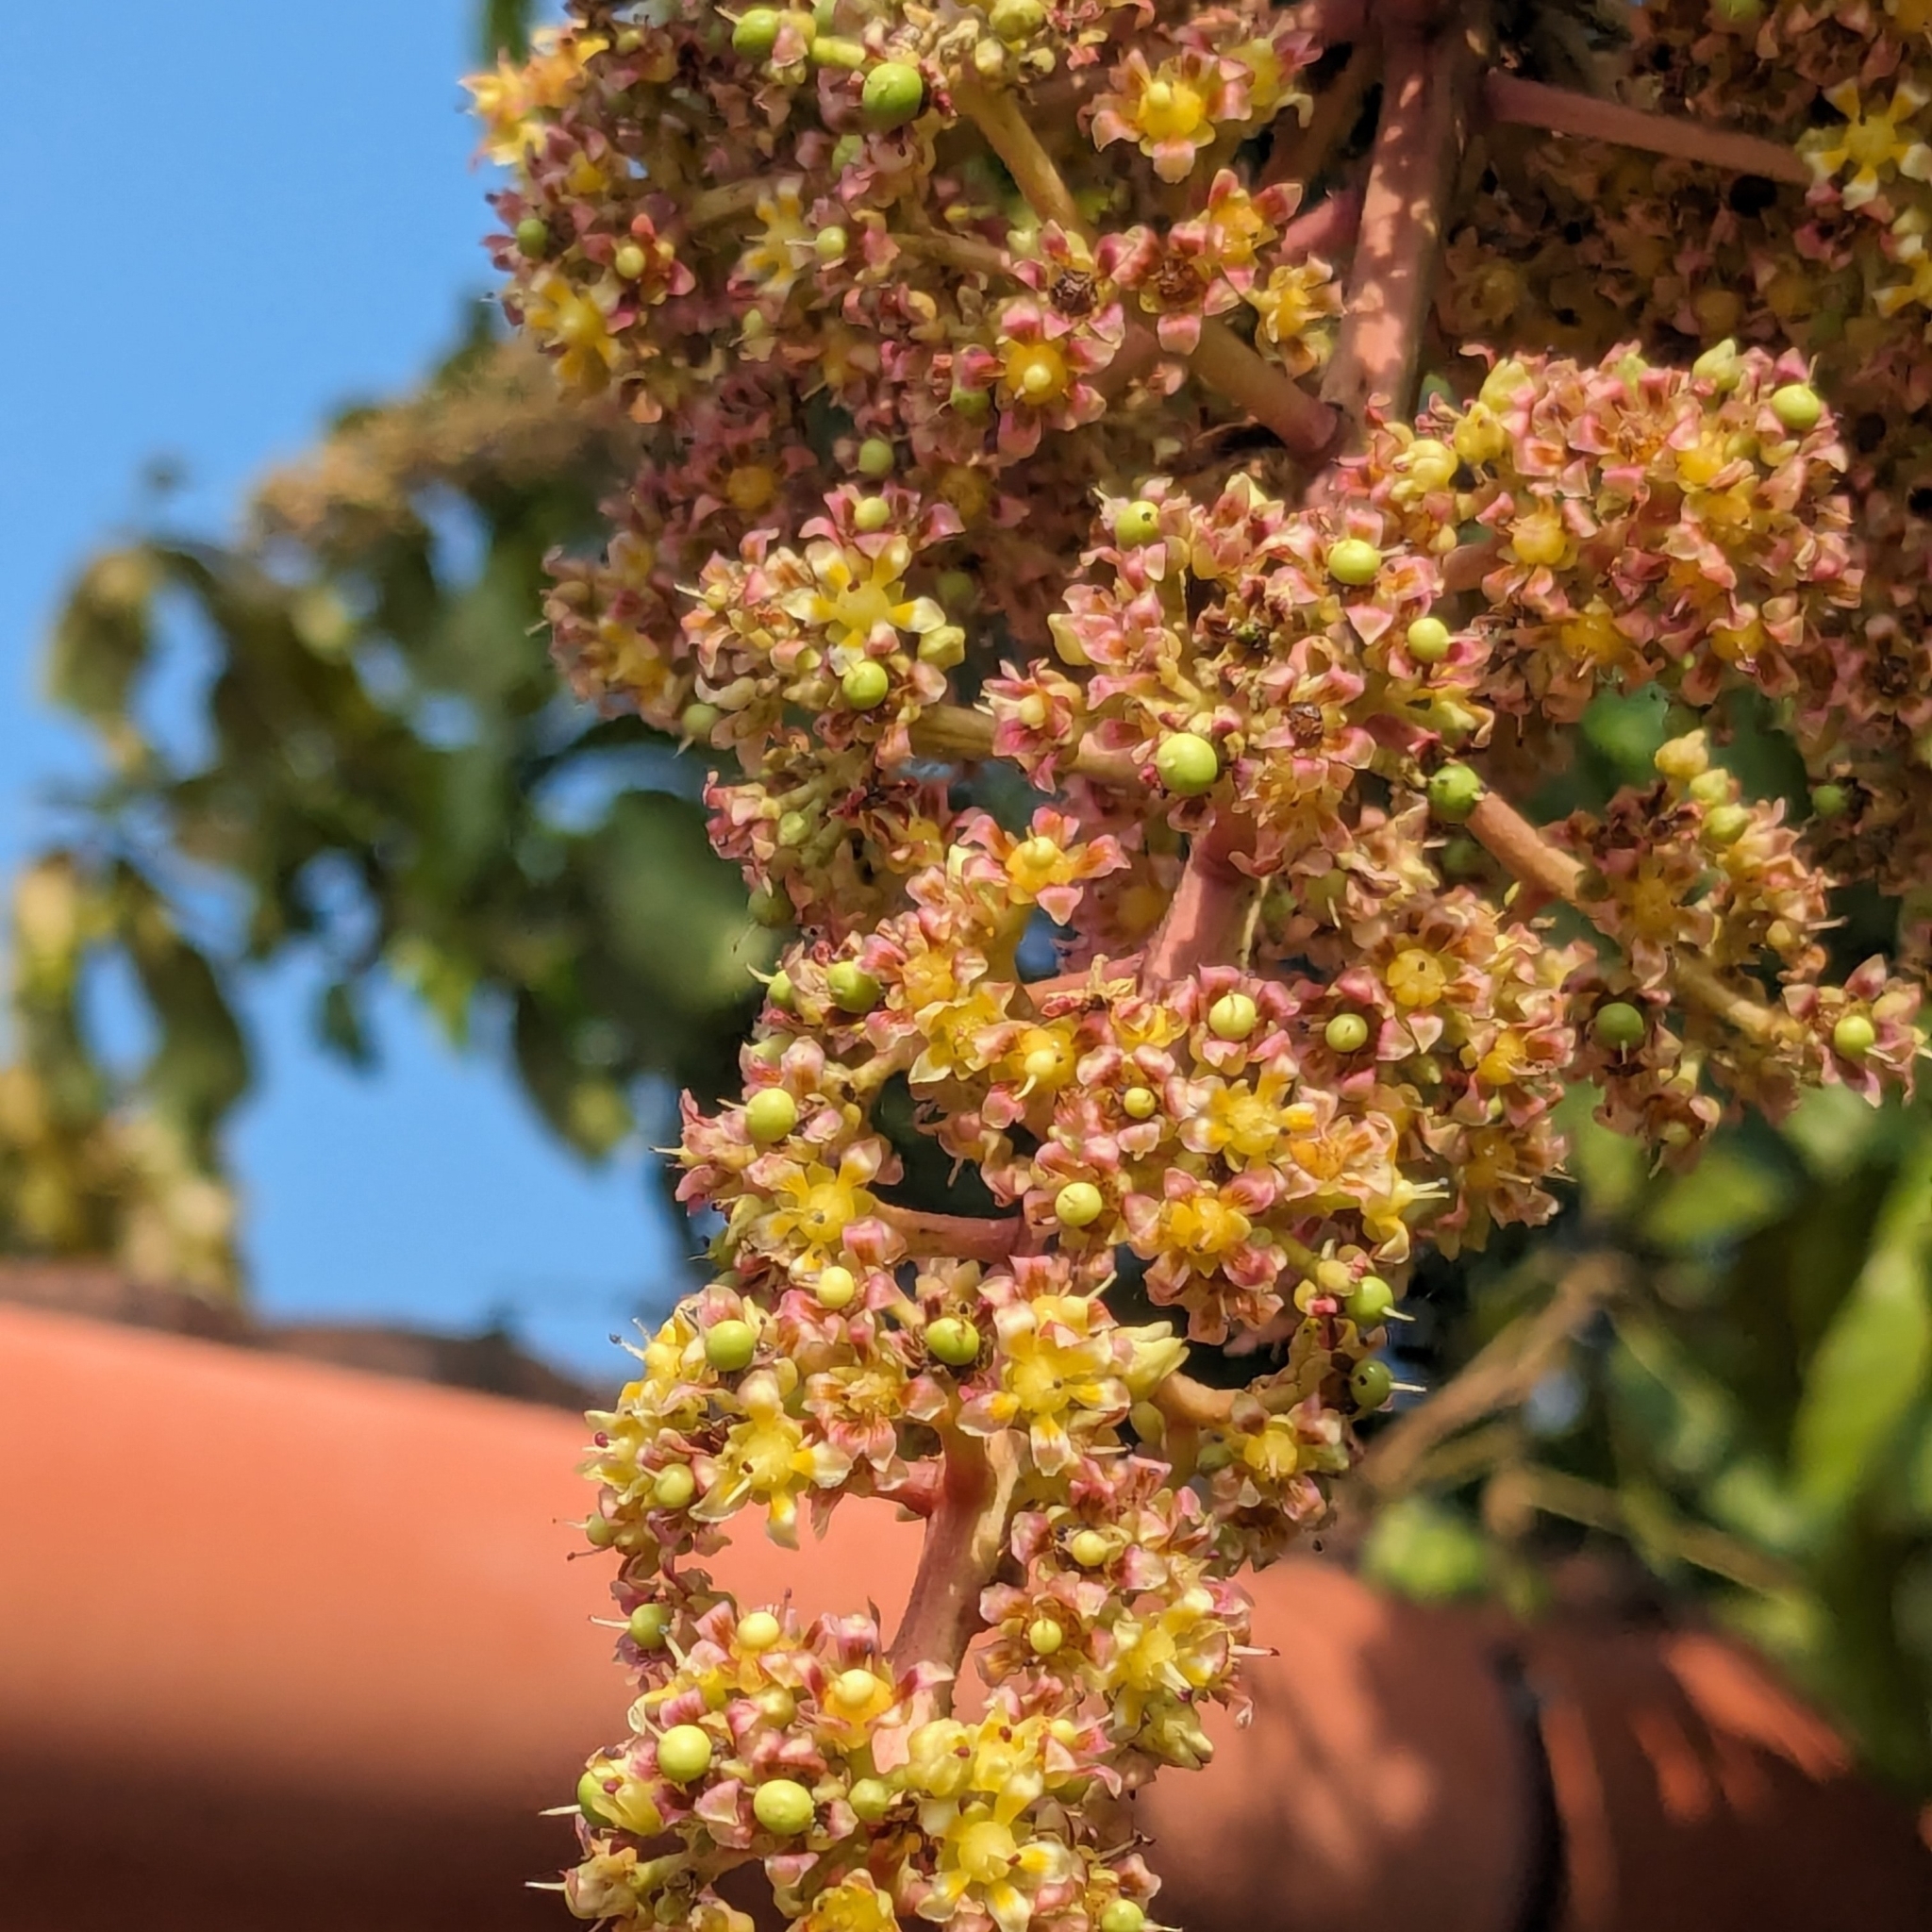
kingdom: Plantae
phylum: Tracheophyta
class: Magnoliopsida
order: Sapindales
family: Anacardiaceae
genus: Mangifera
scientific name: Mangifera indica
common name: Mango
